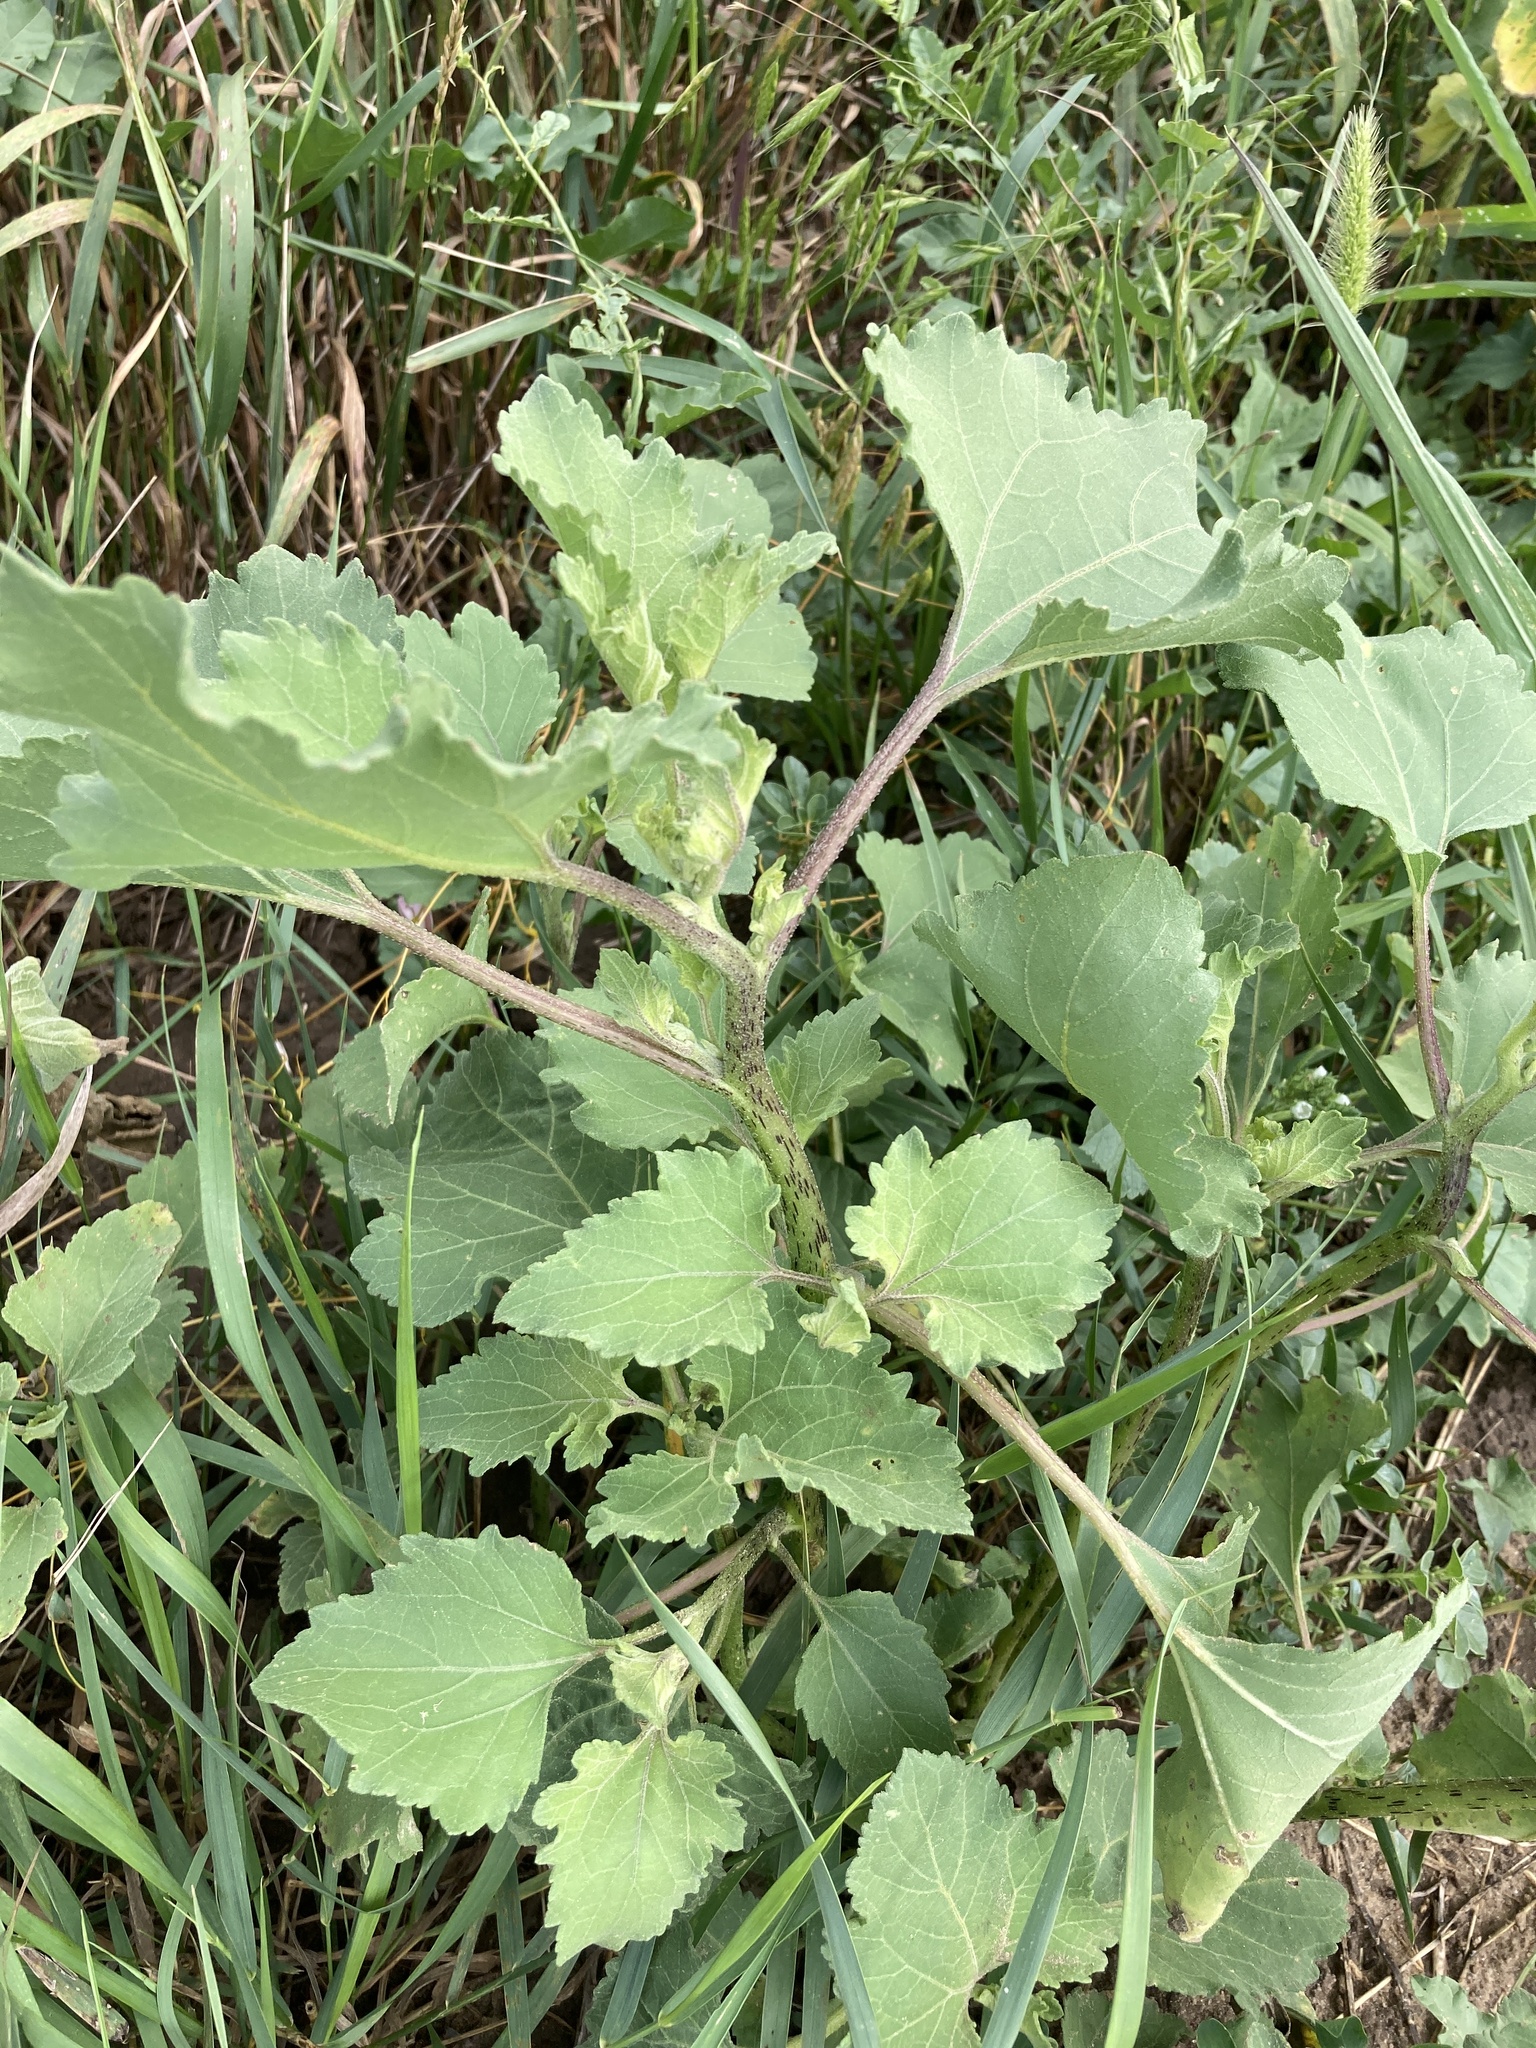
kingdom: Plantae
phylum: Tracheophyta
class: Magnoliopsida
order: Asterales
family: Asteraceae
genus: Xanthium
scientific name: Xanthium orientale
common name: Californian burr
